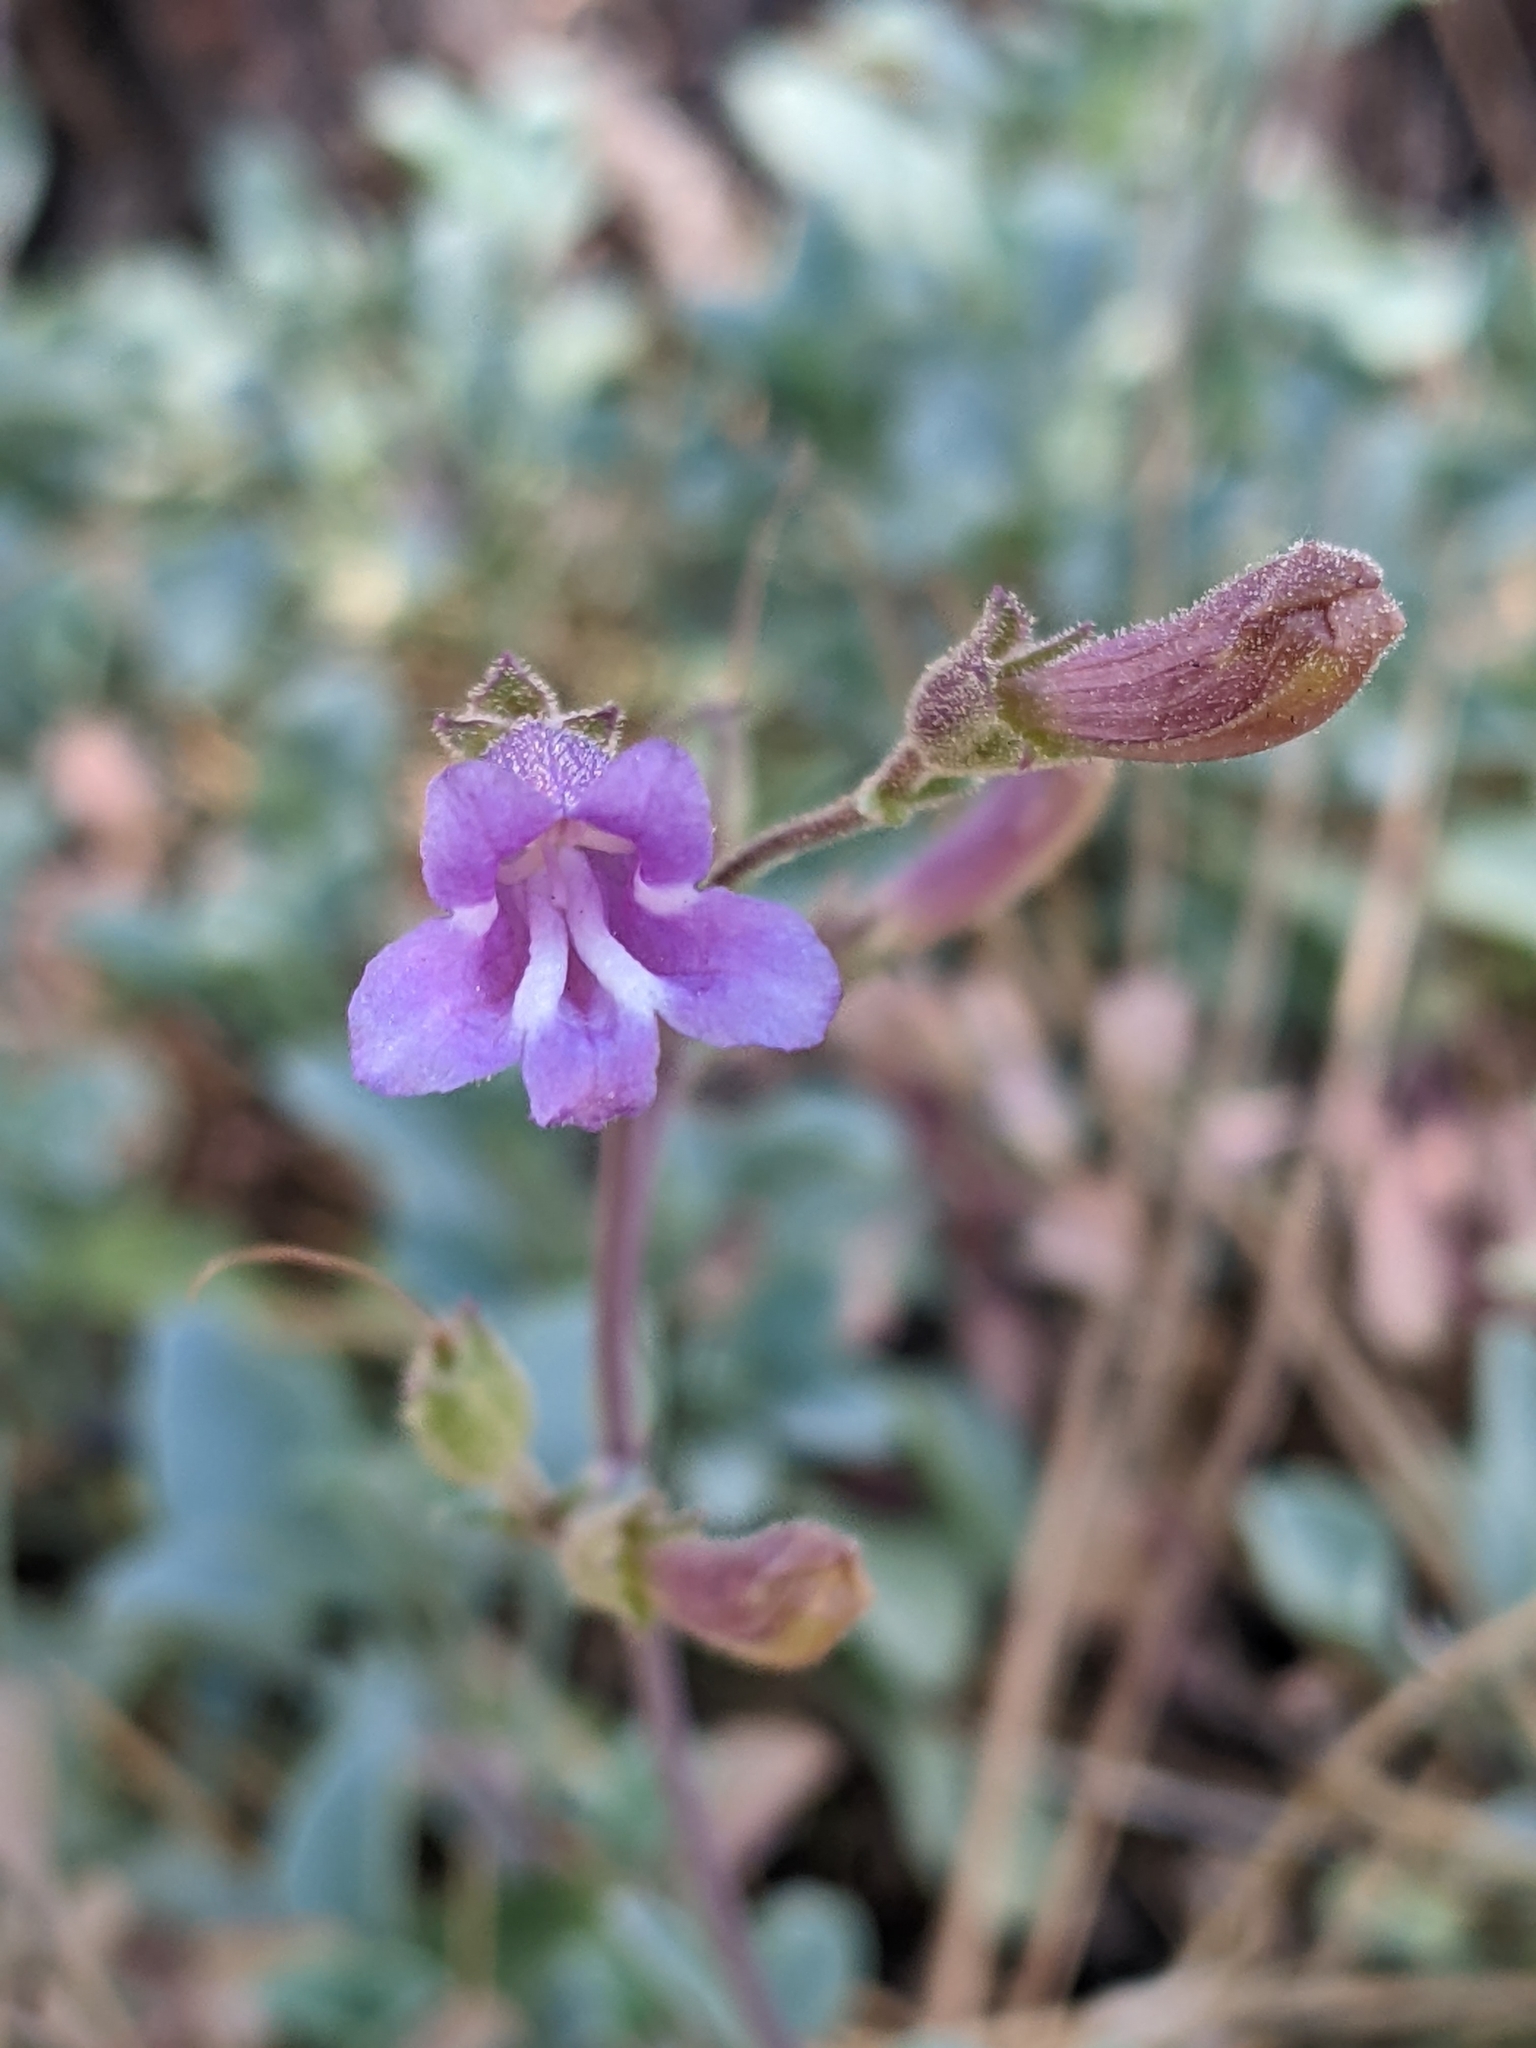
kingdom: Plantae
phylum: Tracheophyta
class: Magnoliopsida
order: Lamiales
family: Plantaginaceae
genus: Penstemon
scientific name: Penstemon caesius
